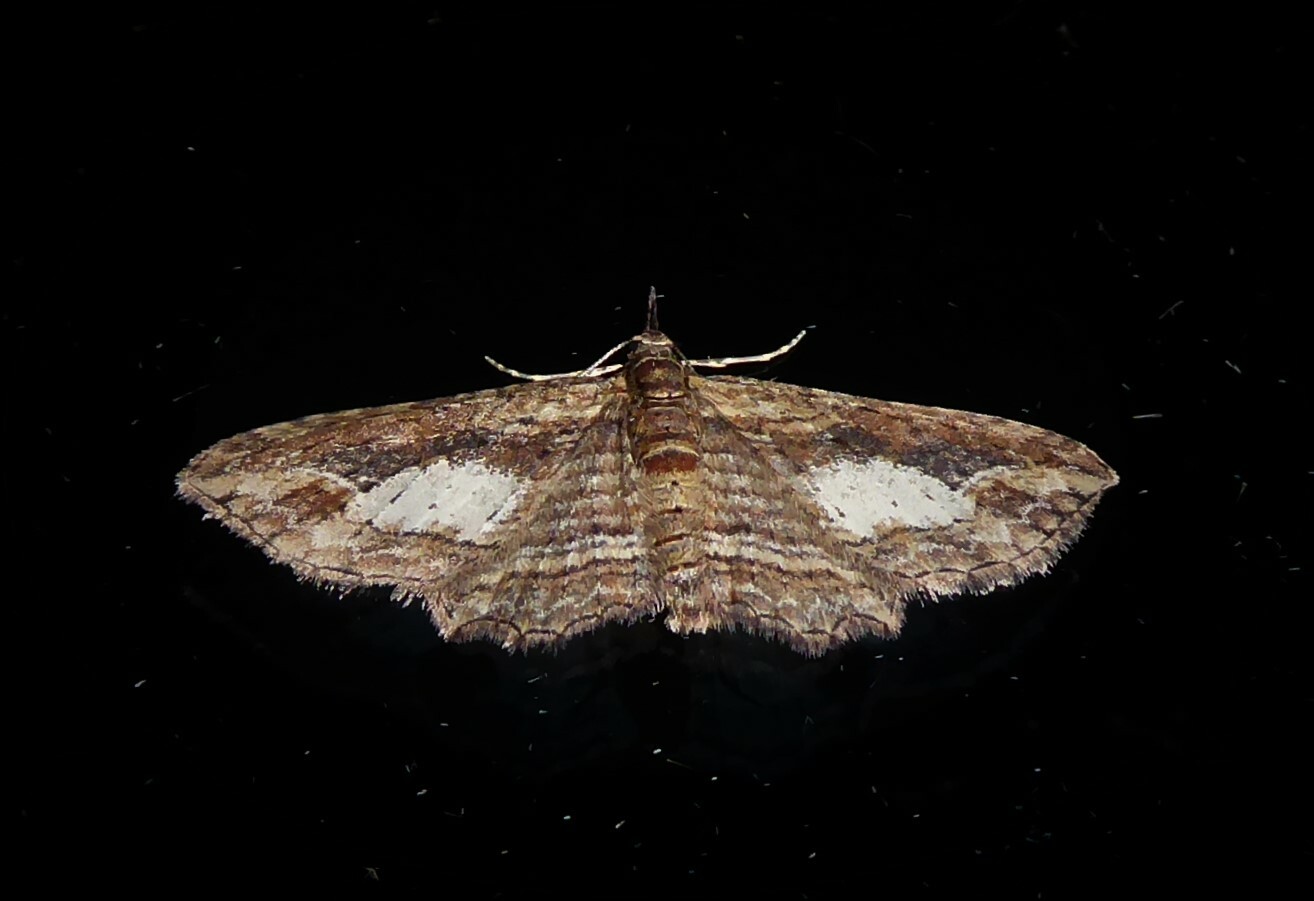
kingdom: Animalia
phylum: Arthropoda
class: Insecta
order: Lepidoptera
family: Geometridae
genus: Chloroclystis
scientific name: Chloroclystis filata
